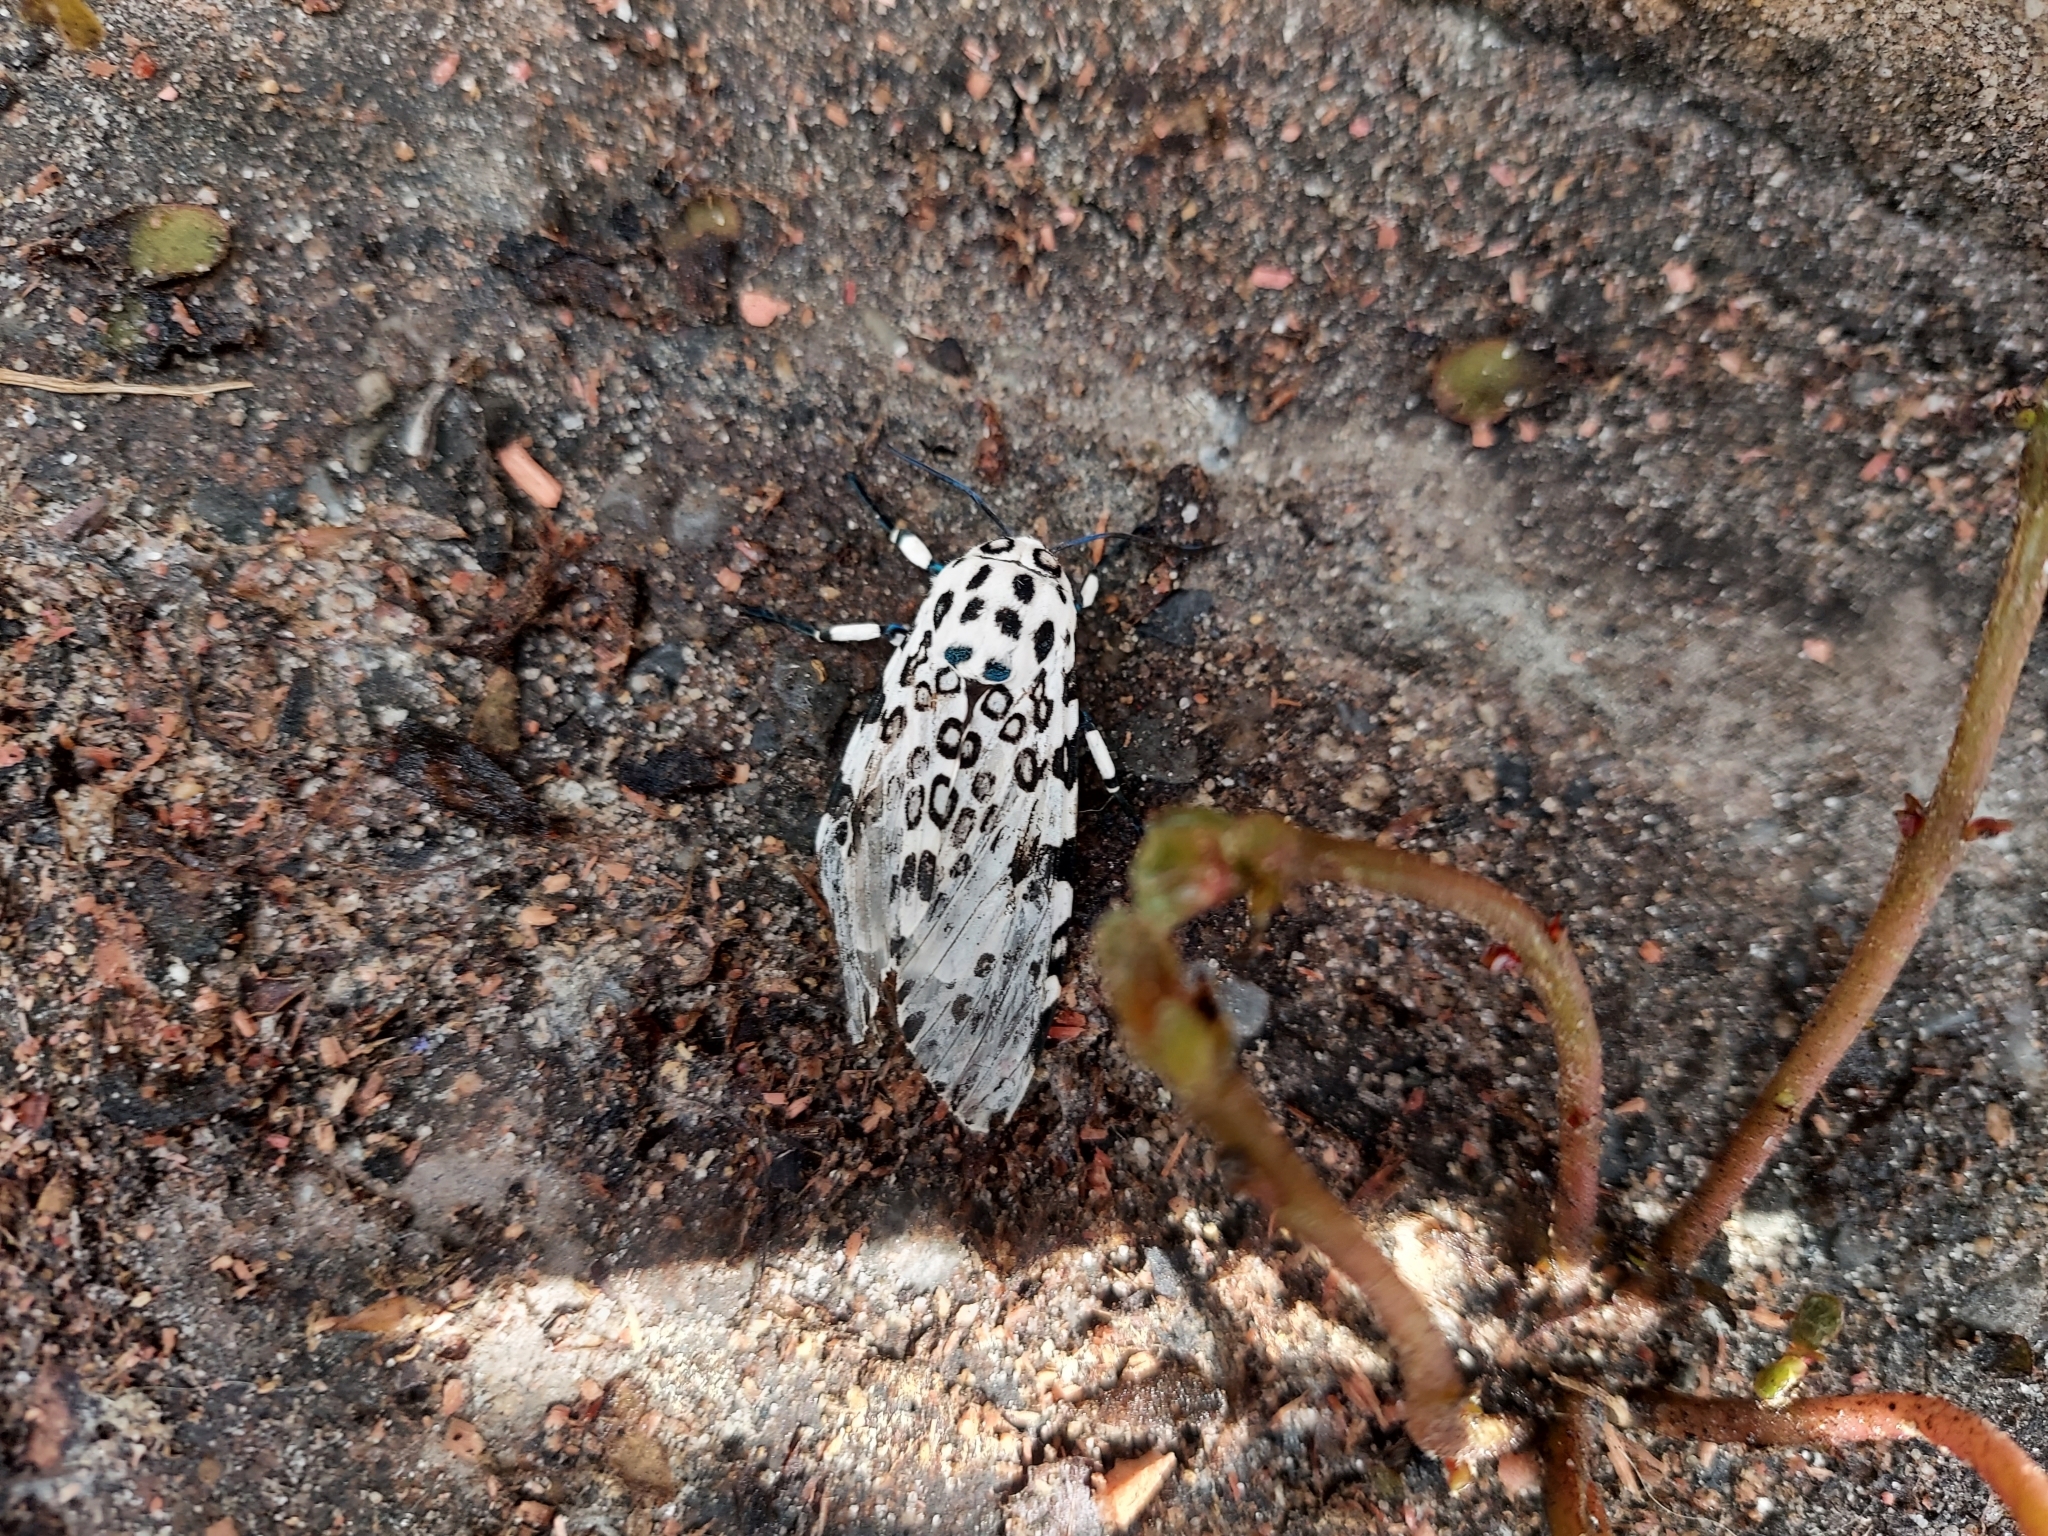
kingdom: Animalia
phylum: Arthropoda
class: Insecta
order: Lepidoptera
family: Erebidae
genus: Hypercompe
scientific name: Hypercompe scribonia
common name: Giant leopard moth
